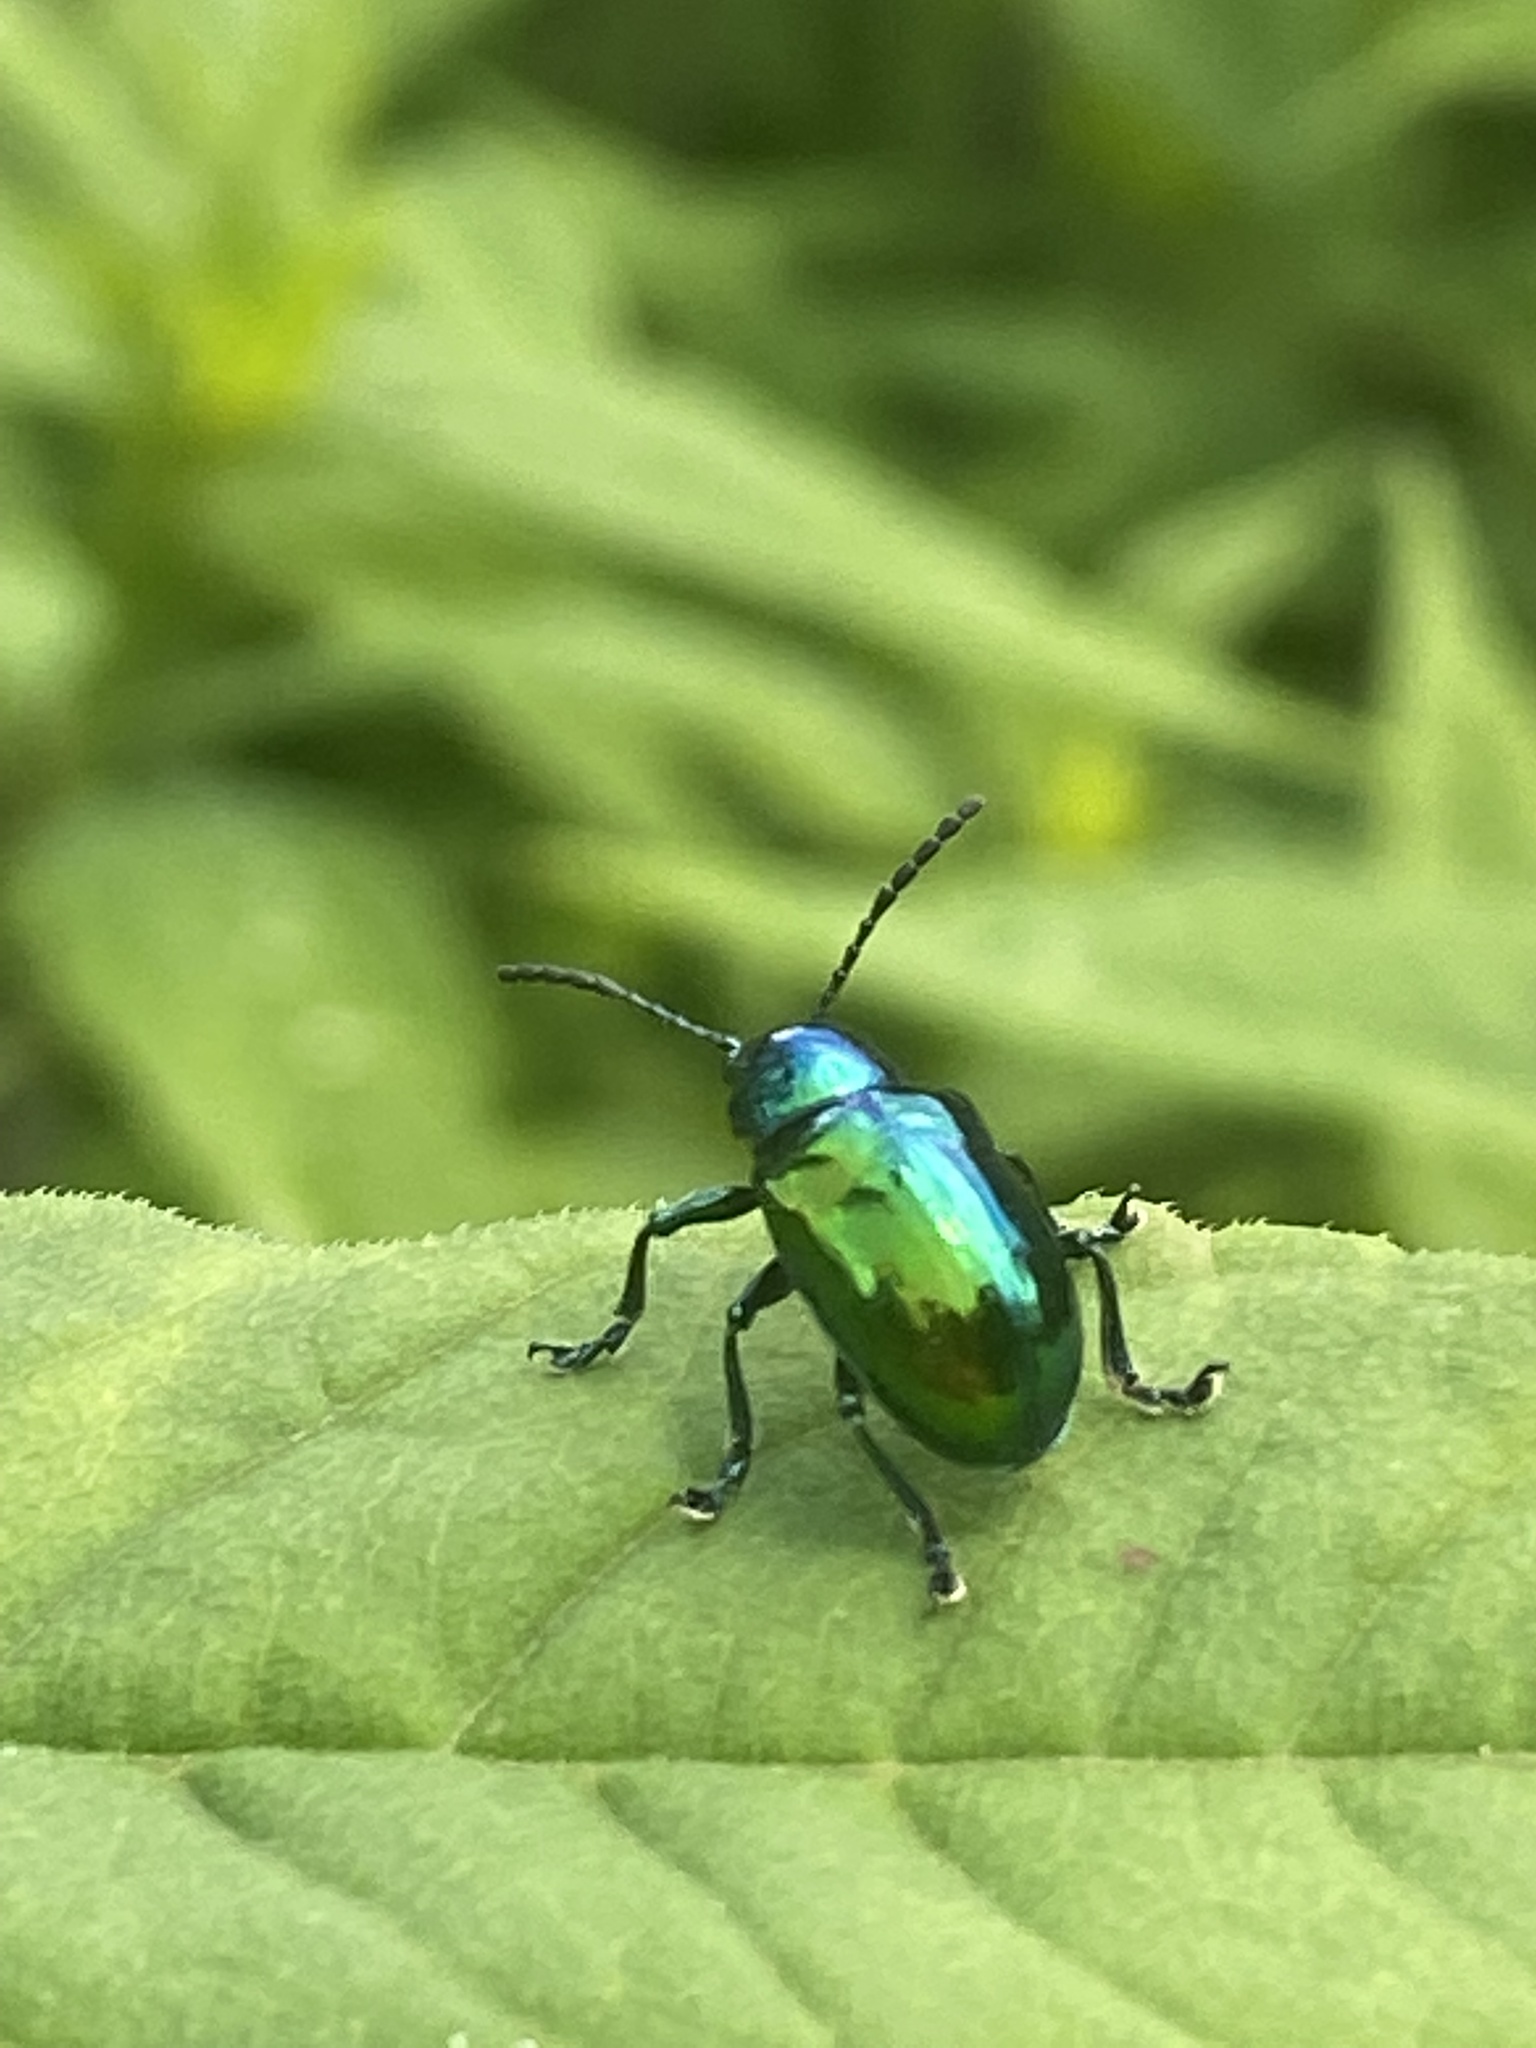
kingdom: Animalia
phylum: Arthropoda
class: Insecta
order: Coleoptera
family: Chrysomelidae
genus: Chrysochus
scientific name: Chrysochus auratus
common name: Dogbane leaf beetle
